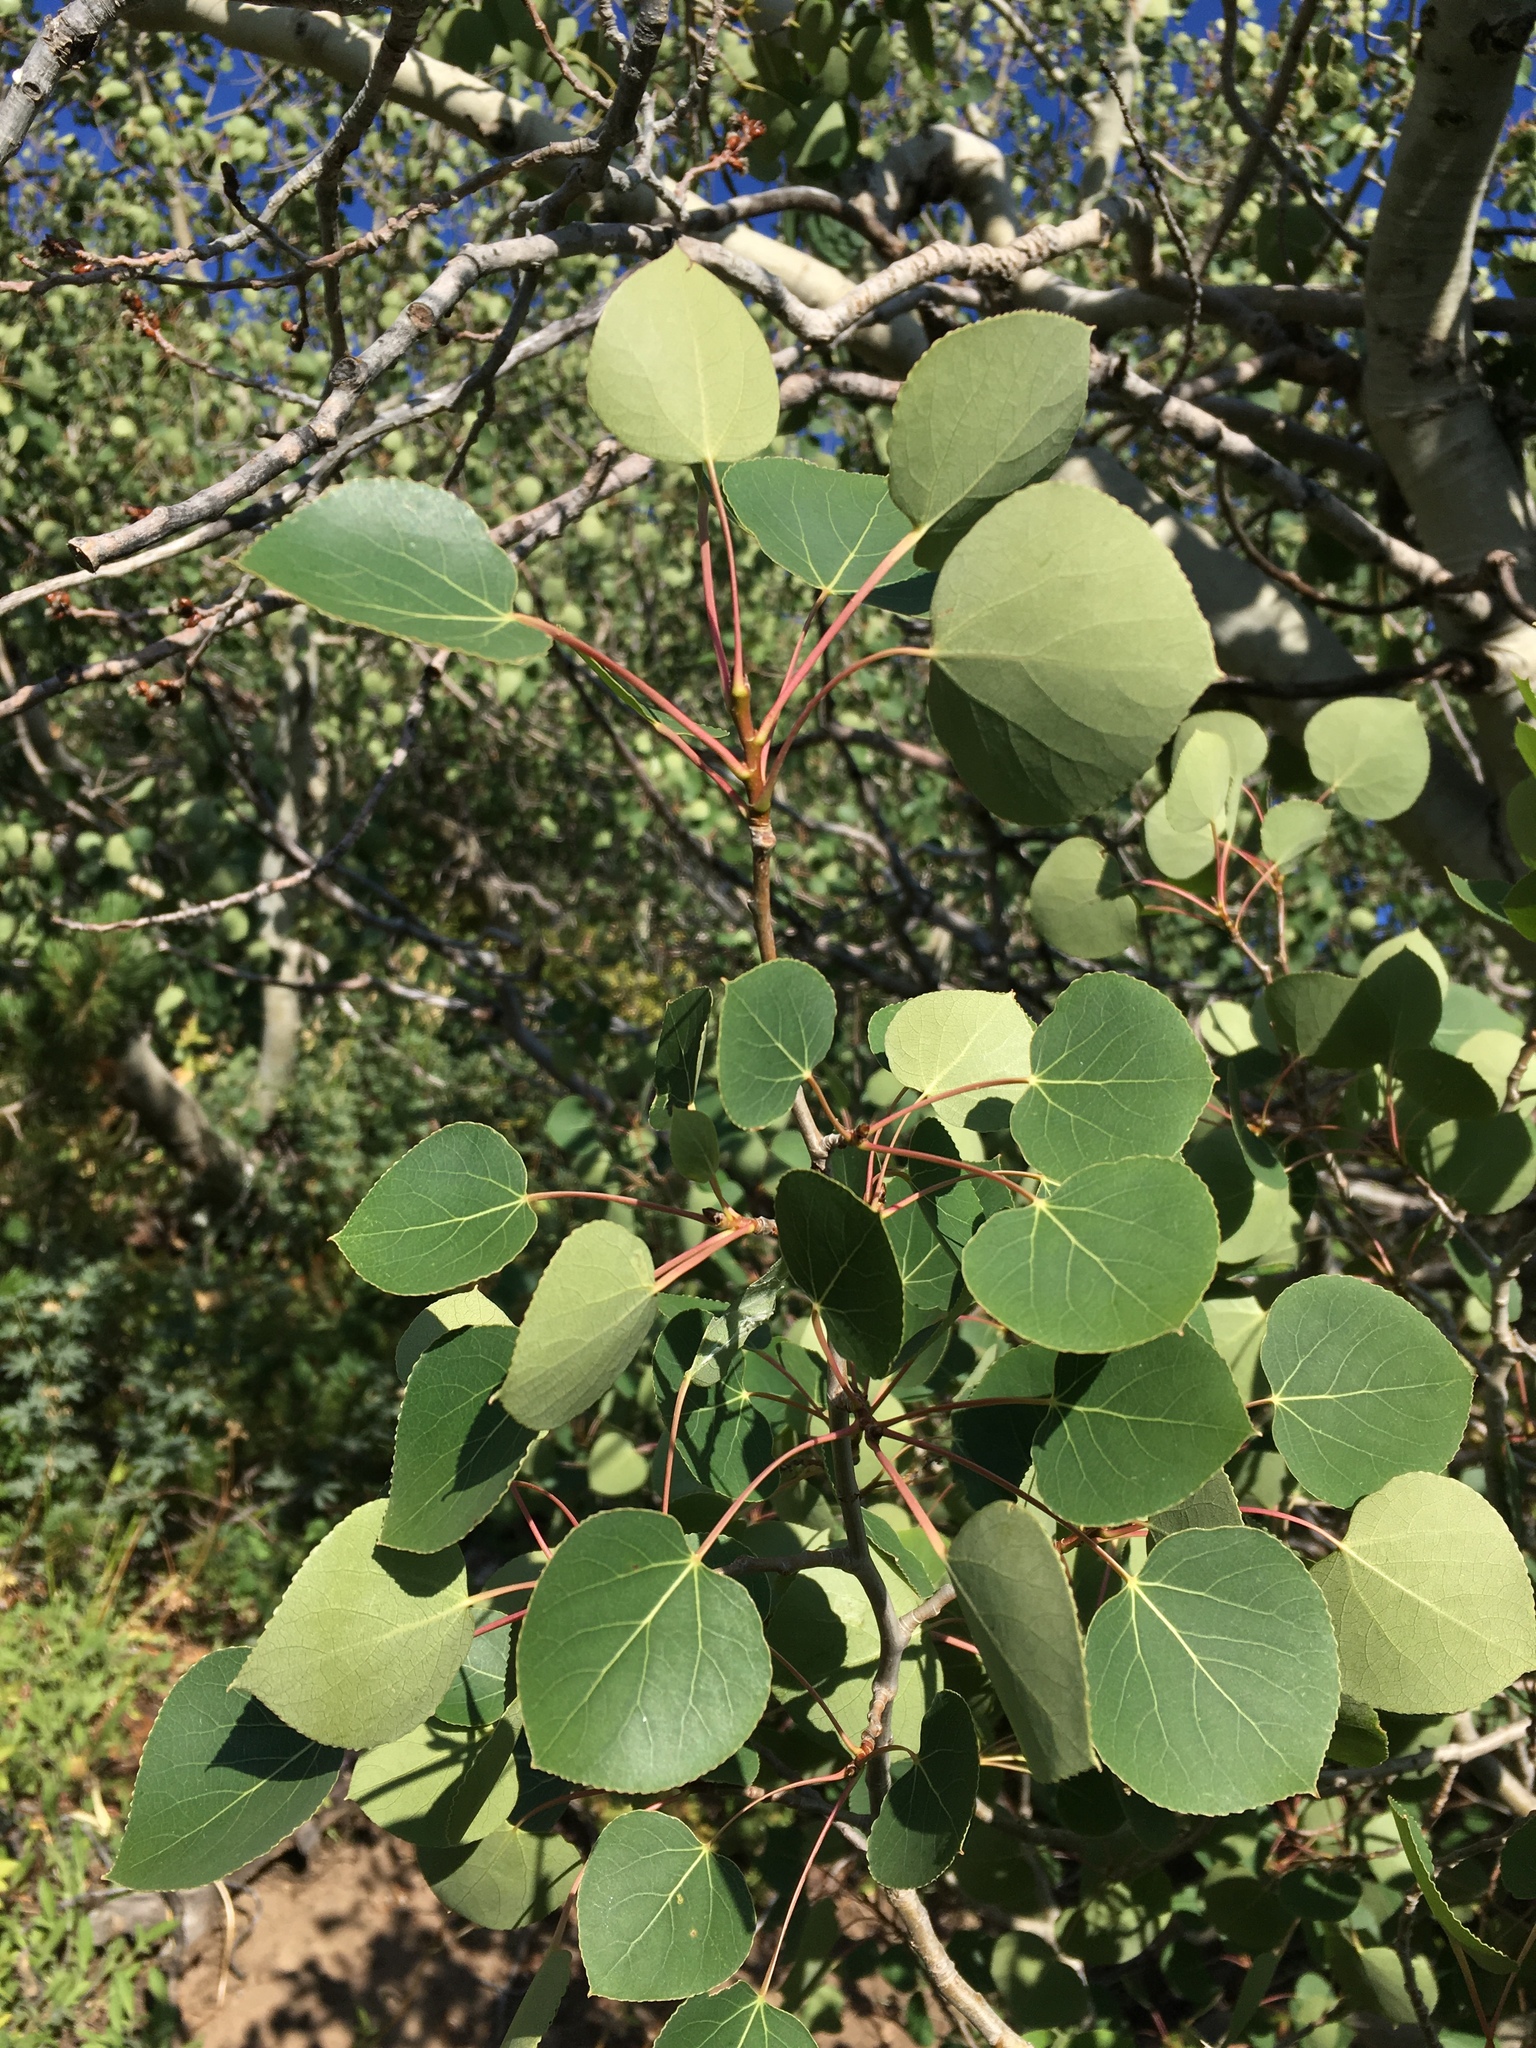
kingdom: Plantae
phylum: Tracheophyta
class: Magnoliopsida
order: Malpighiales
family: Salicaceae
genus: Populus
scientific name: Populus tremuloides
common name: Quaking aspen
